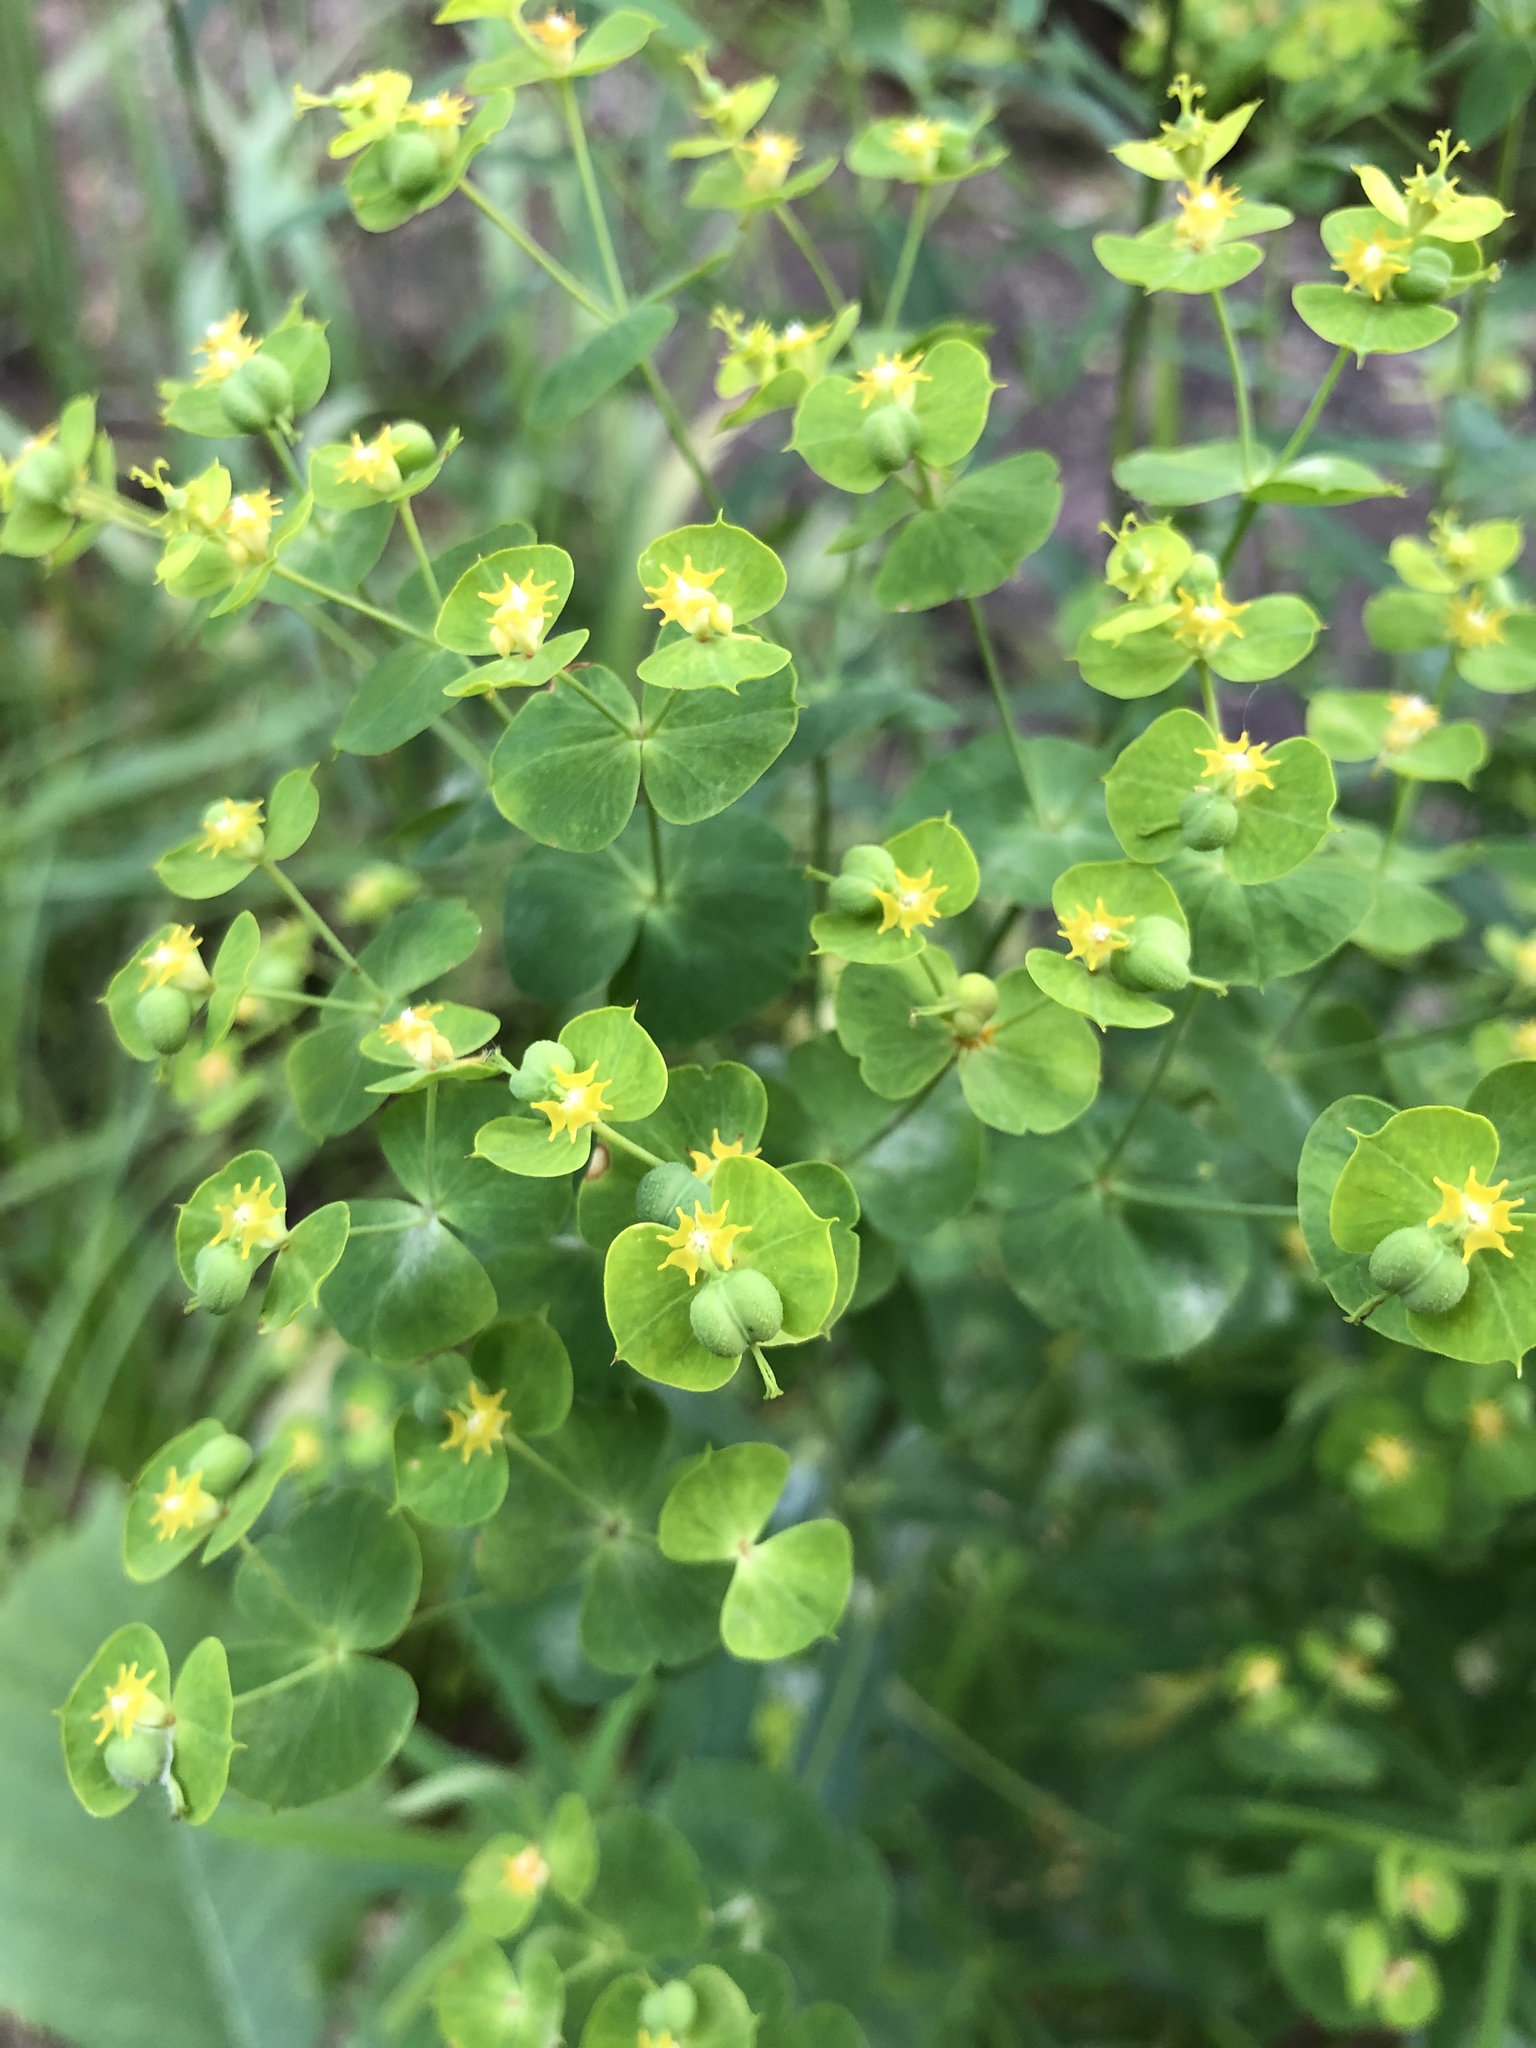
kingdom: Plantae
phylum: Tracheophyta
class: Magnoliopsida
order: Malpighiales
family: Euphorbiaceae
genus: Euphorbia
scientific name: Euphorbia virgata
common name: Leafy spurge
